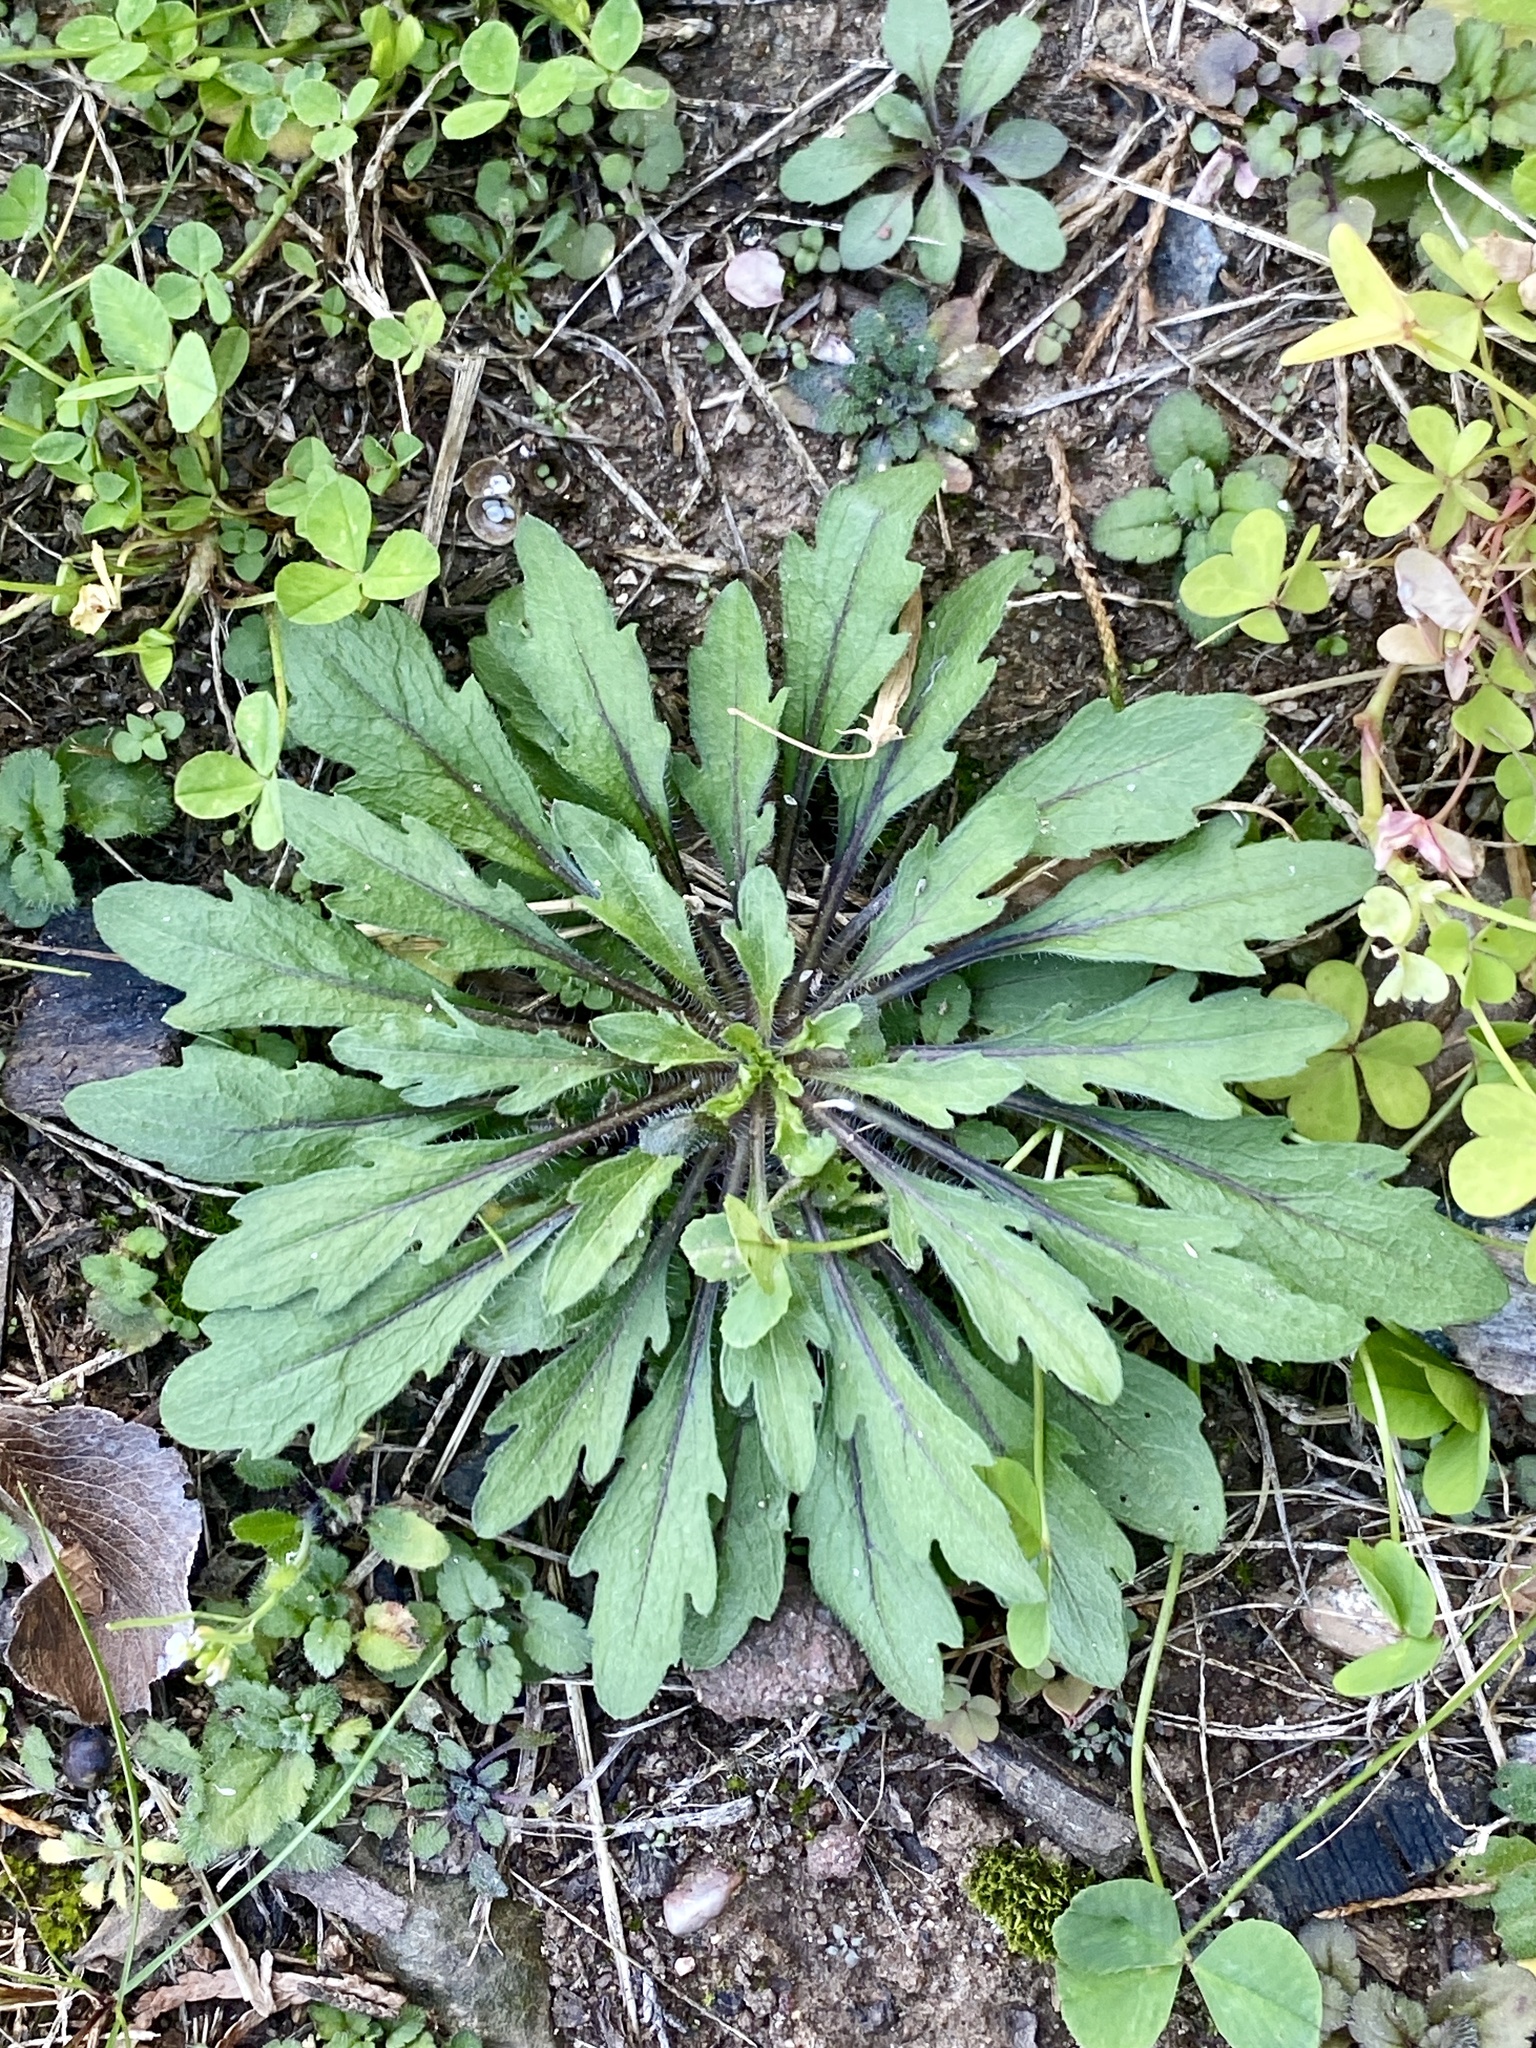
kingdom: Plantae
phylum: Tracheophyta
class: Magnoliopsida
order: Asterales
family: Asteraceae
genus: Erigeron
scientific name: Erigeron canadensis
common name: Canadian fleabane
